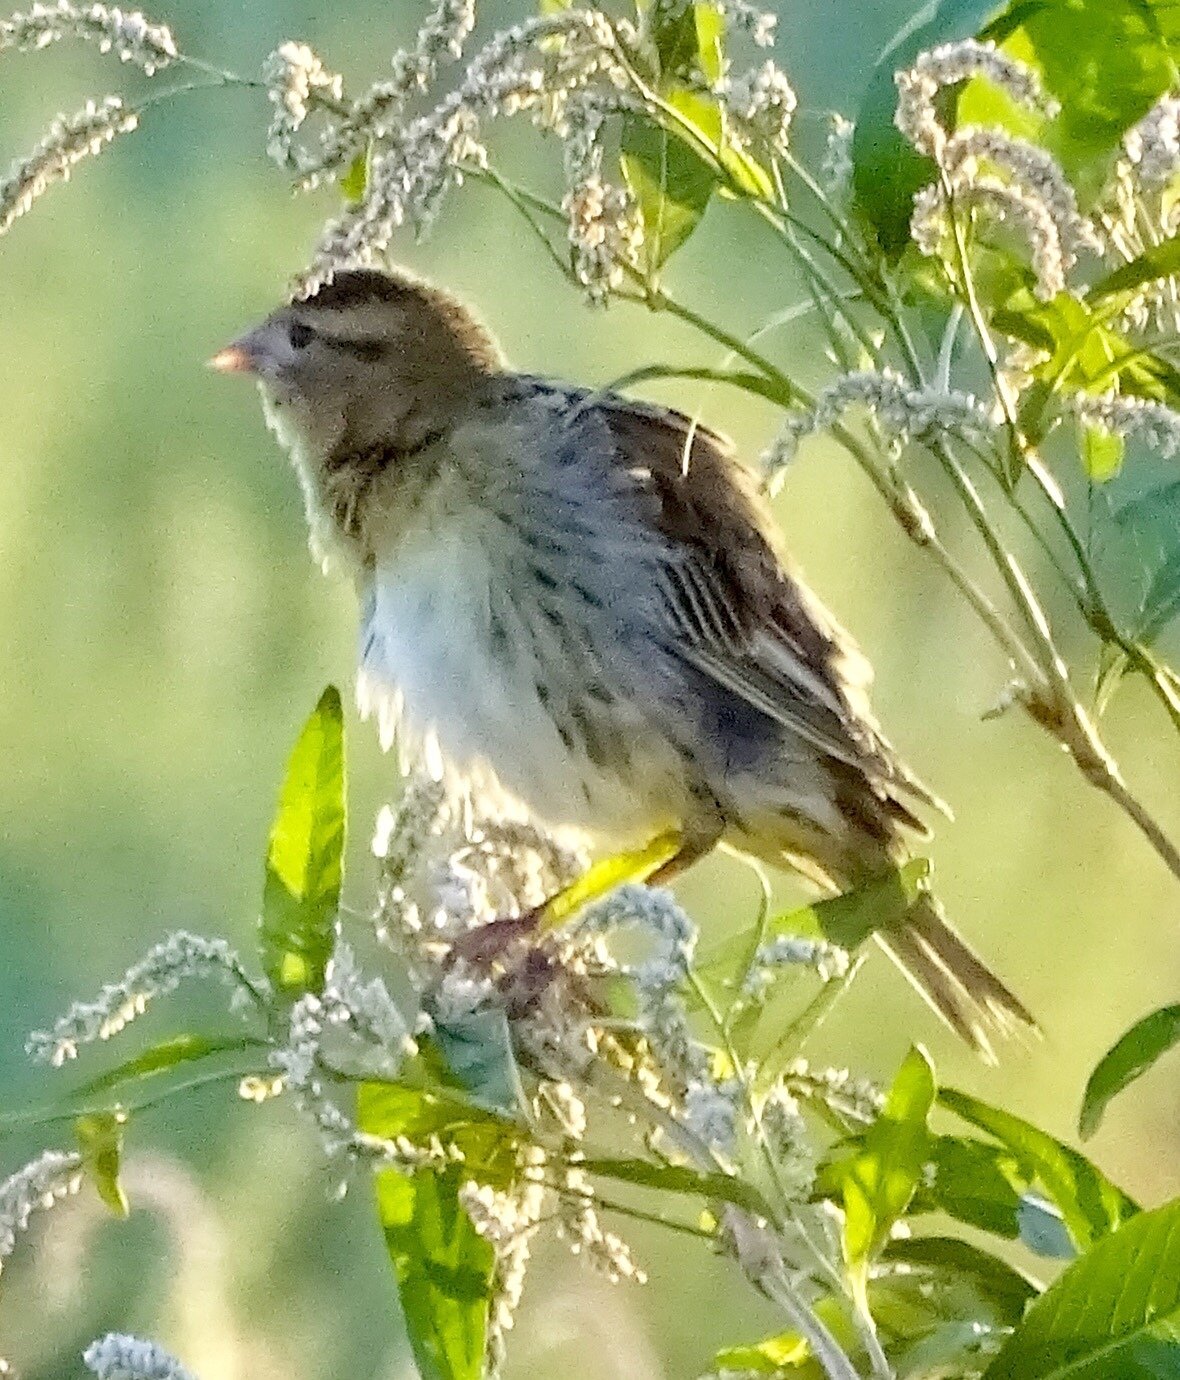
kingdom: Animalia
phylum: Chordata
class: Aves
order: Passeriformes
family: Icteridae
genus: Dolichonyx
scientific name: Dolichonyx oryzivorus
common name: Bobolink
